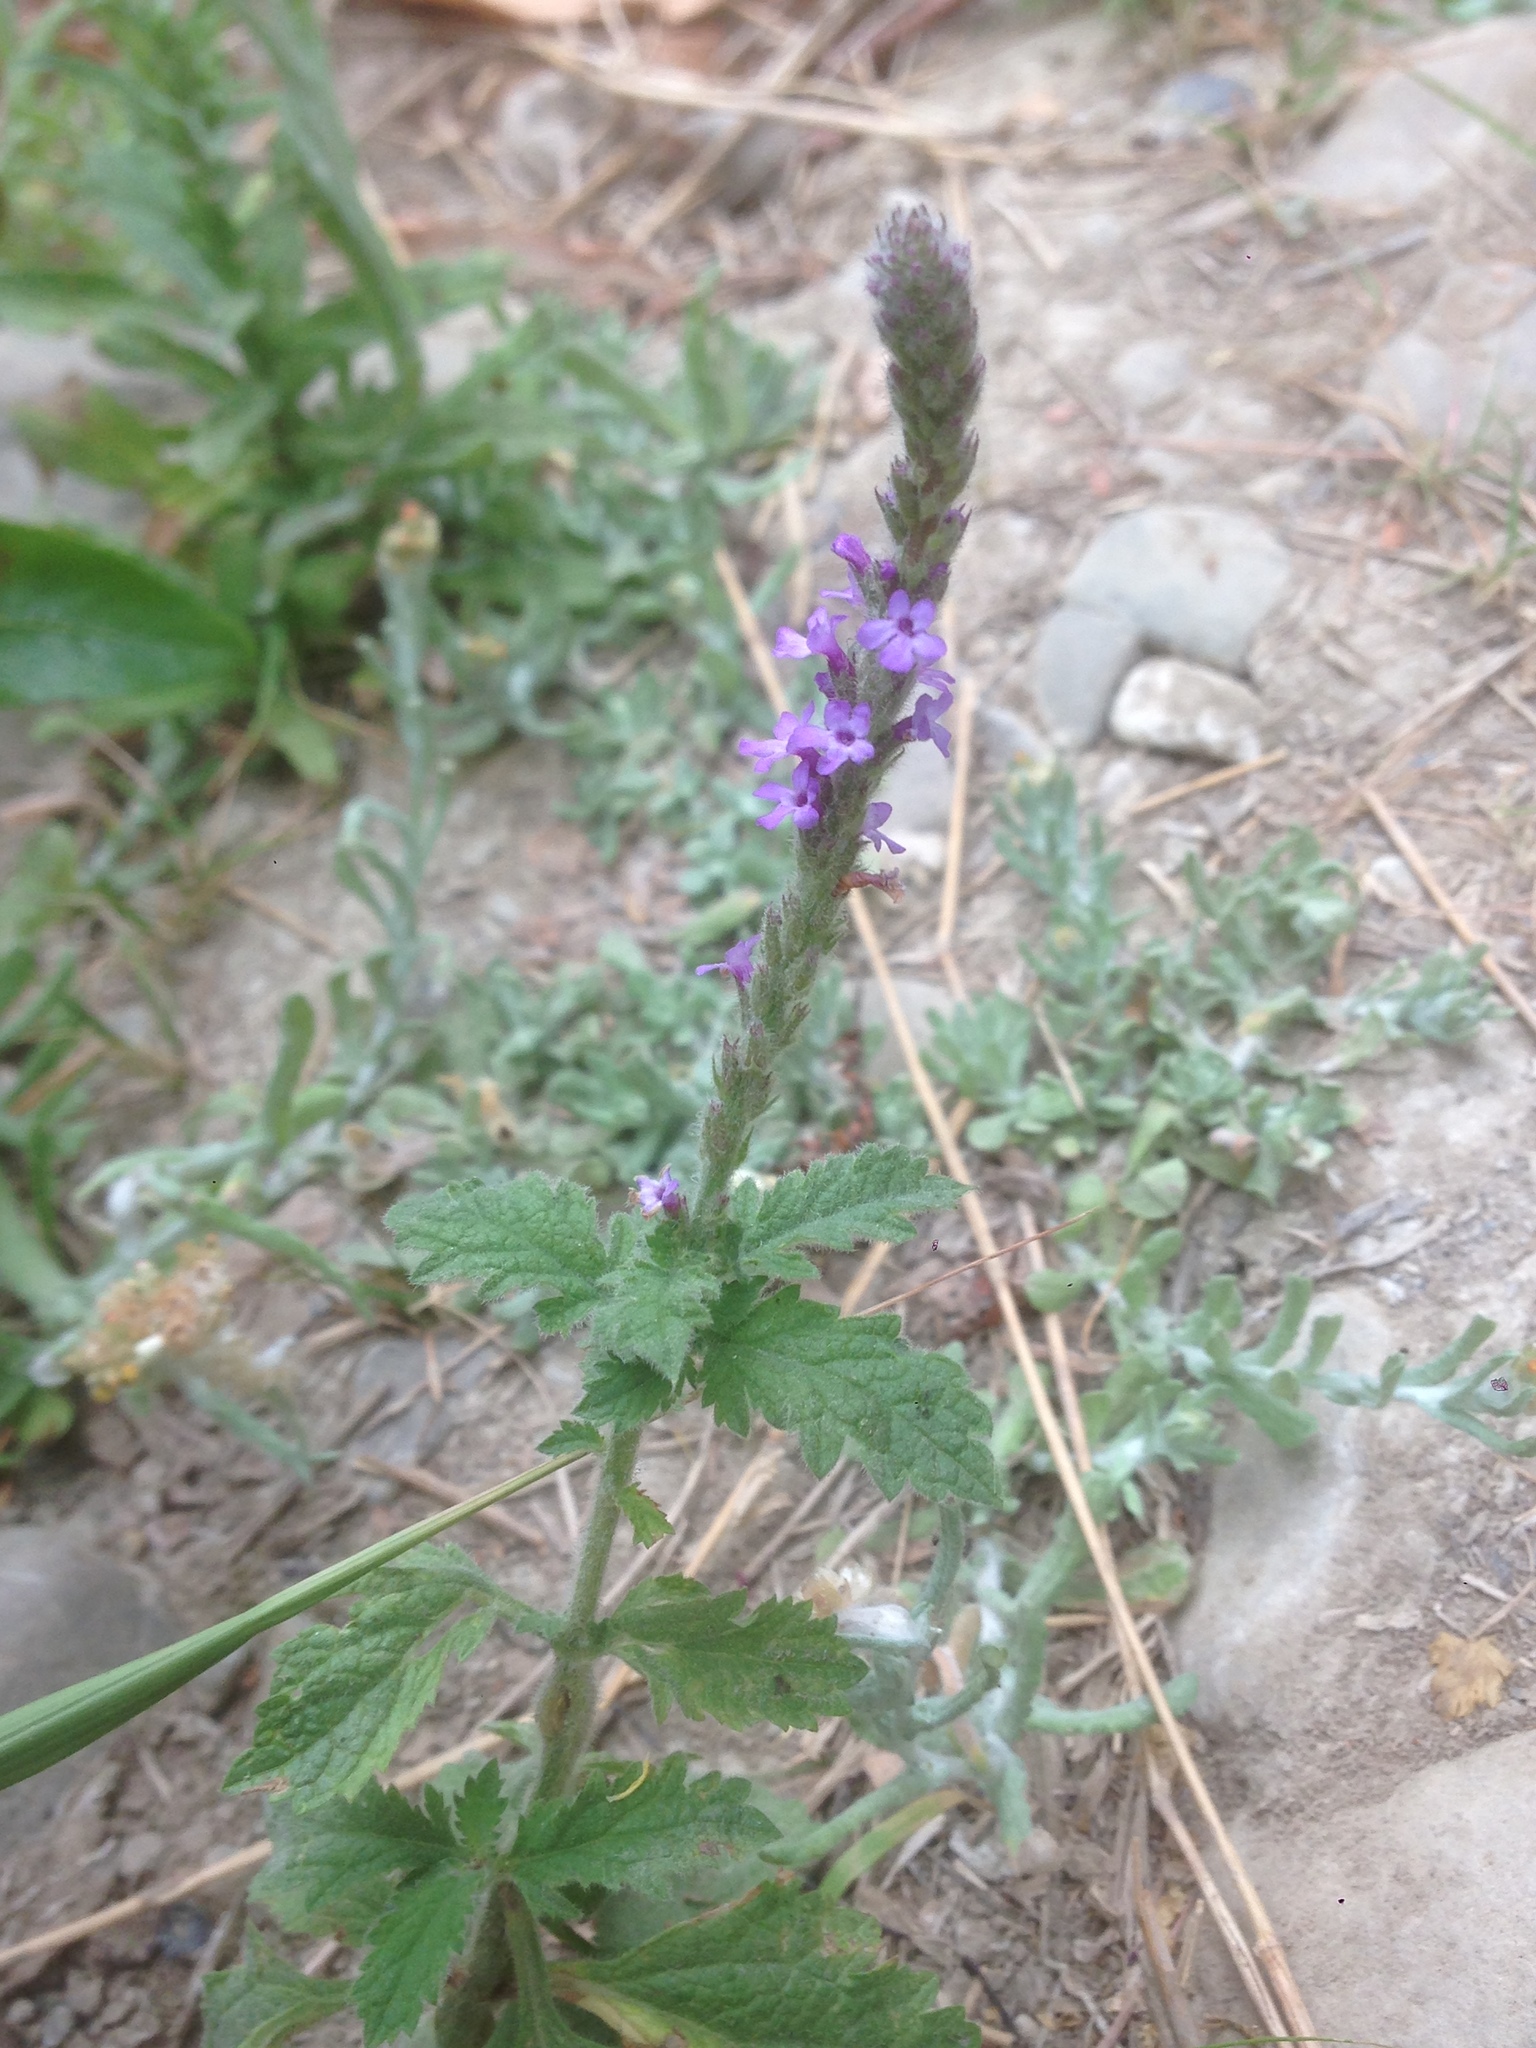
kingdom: Plantae
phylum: Tracheophyta
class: Magnoliopsida
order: Lamiales
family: Verbenaceae
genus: Verbena
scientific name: Verbena lasiostachys
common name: Vervain
